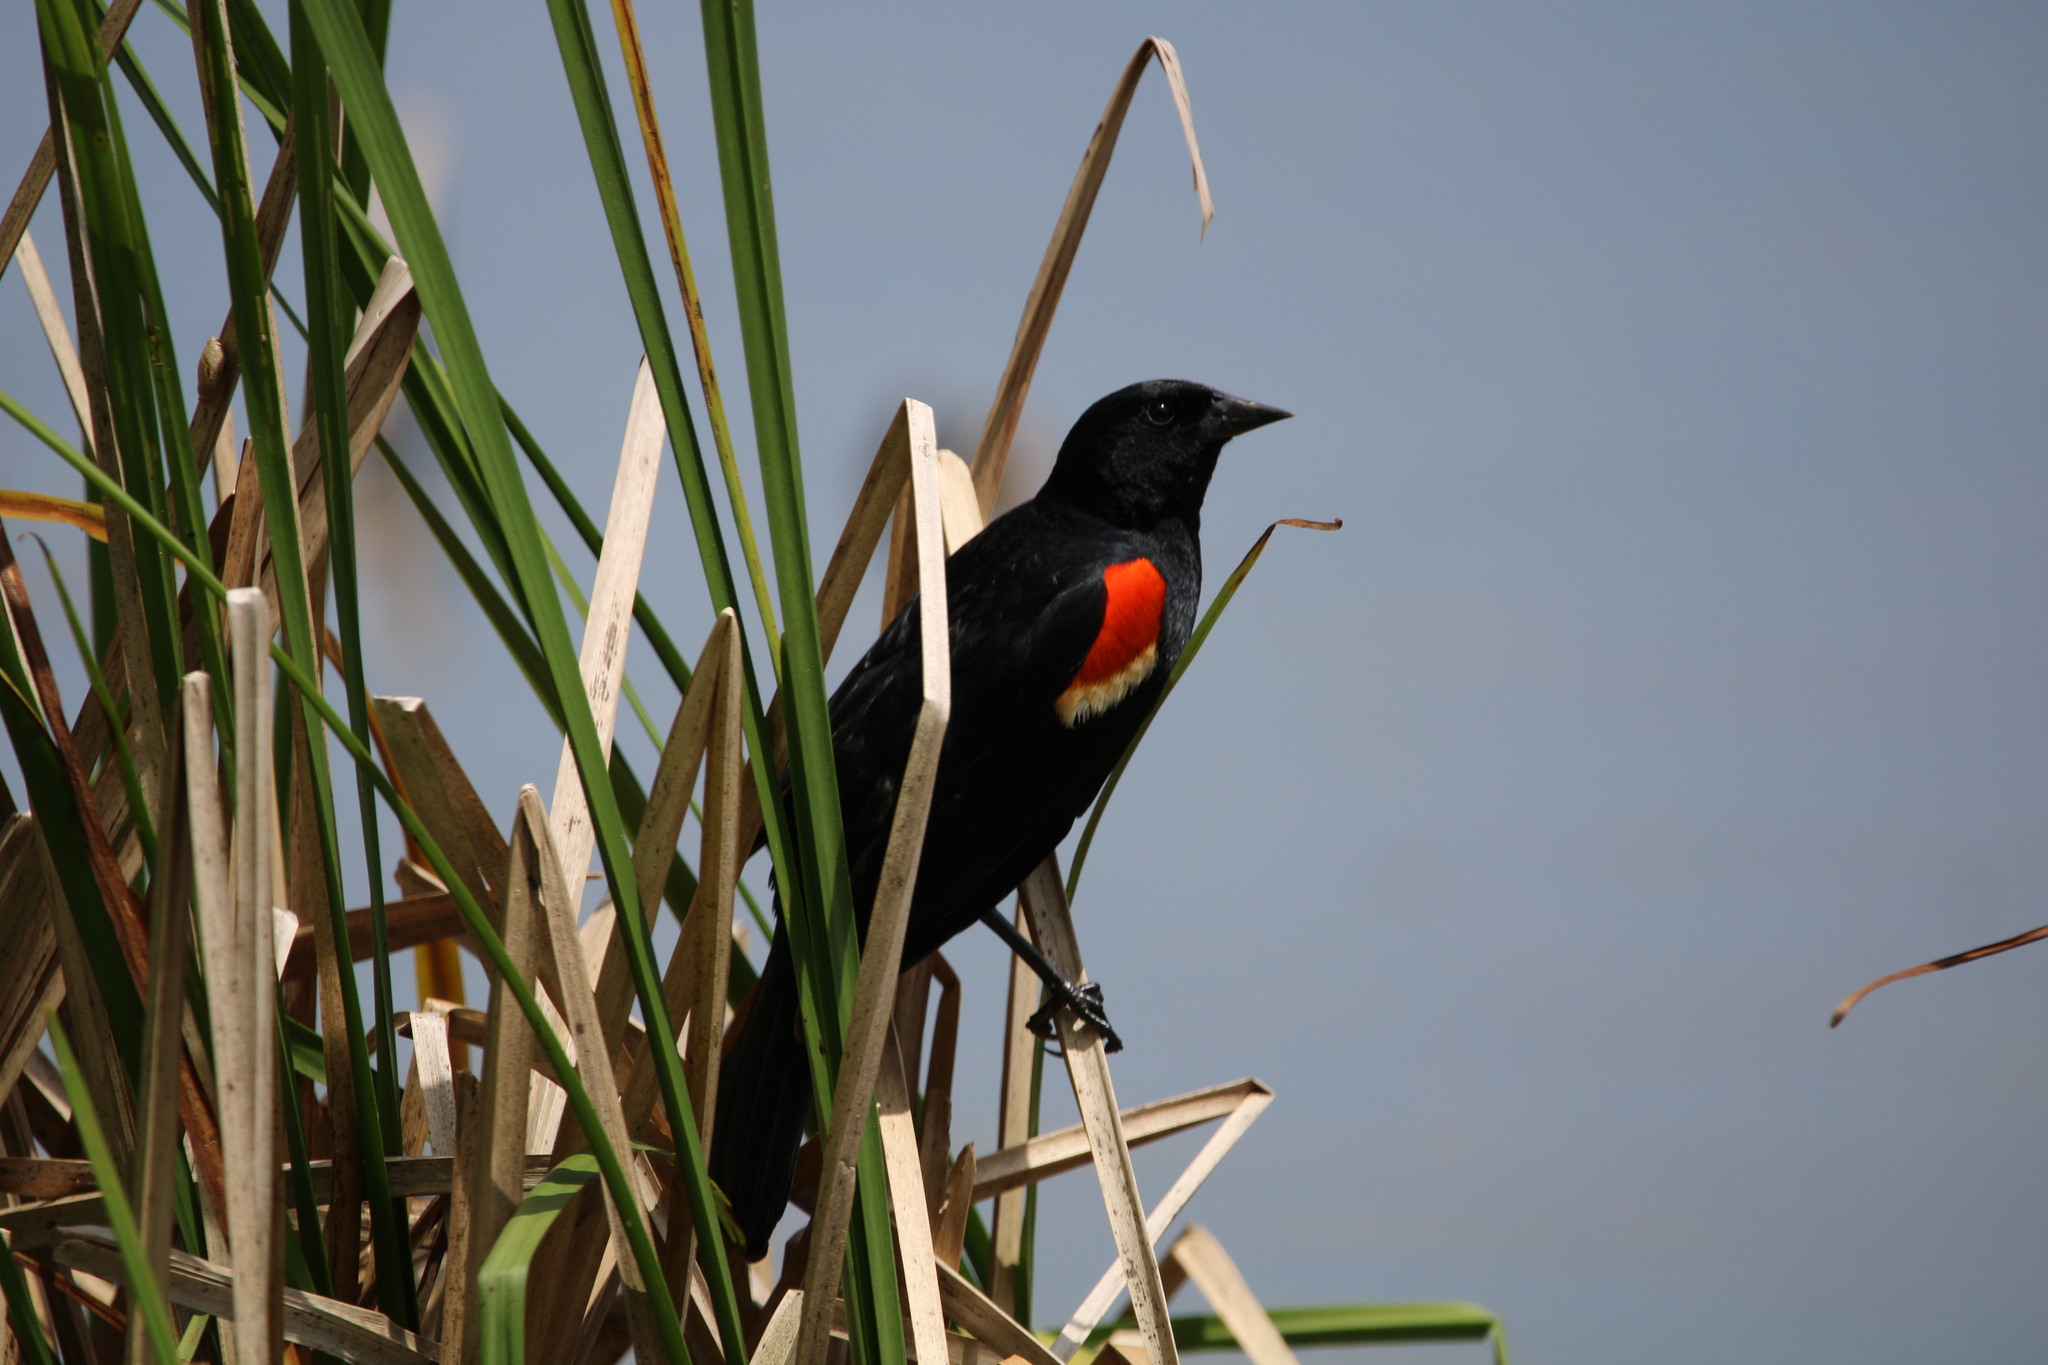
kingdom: Animalia
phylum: Chordata
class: Aves
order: Passeriformes
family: Icteridae
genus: Agelaius
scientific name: Agelaius phoeniceus
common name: Red-winged blackbird
